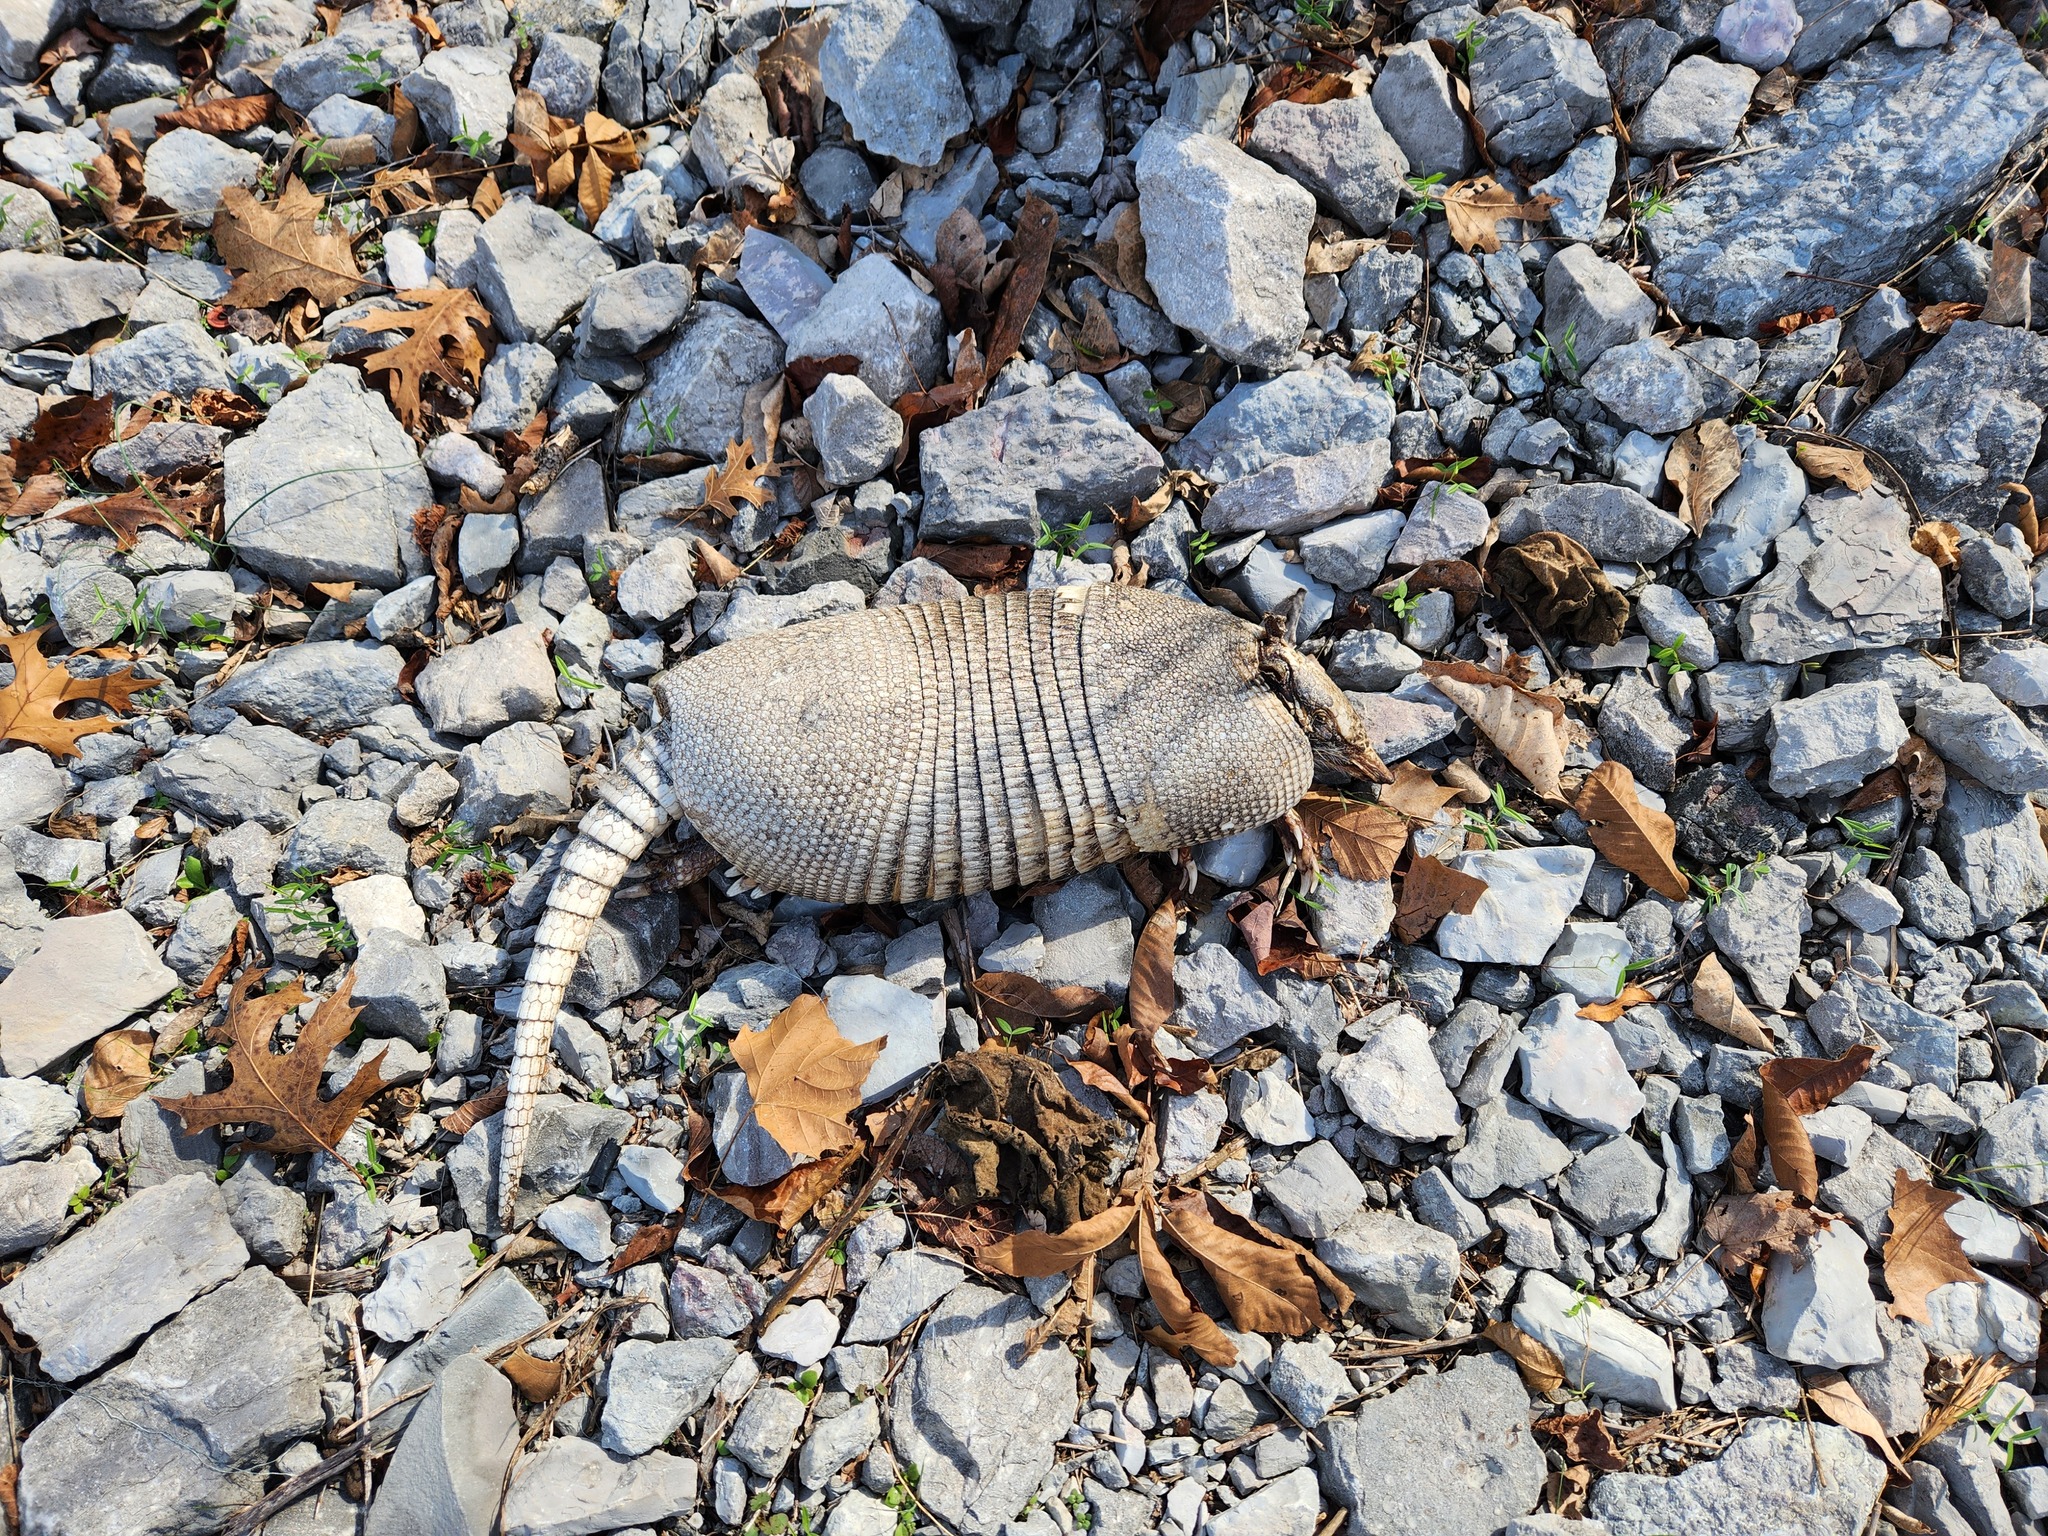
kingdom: Animalia
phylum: Chordata
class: Mammalia
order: Cingulata
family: Dasypodidae
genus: Dasypus
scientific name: Dasypus novemcinctus
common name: Nine-banded armadillo
